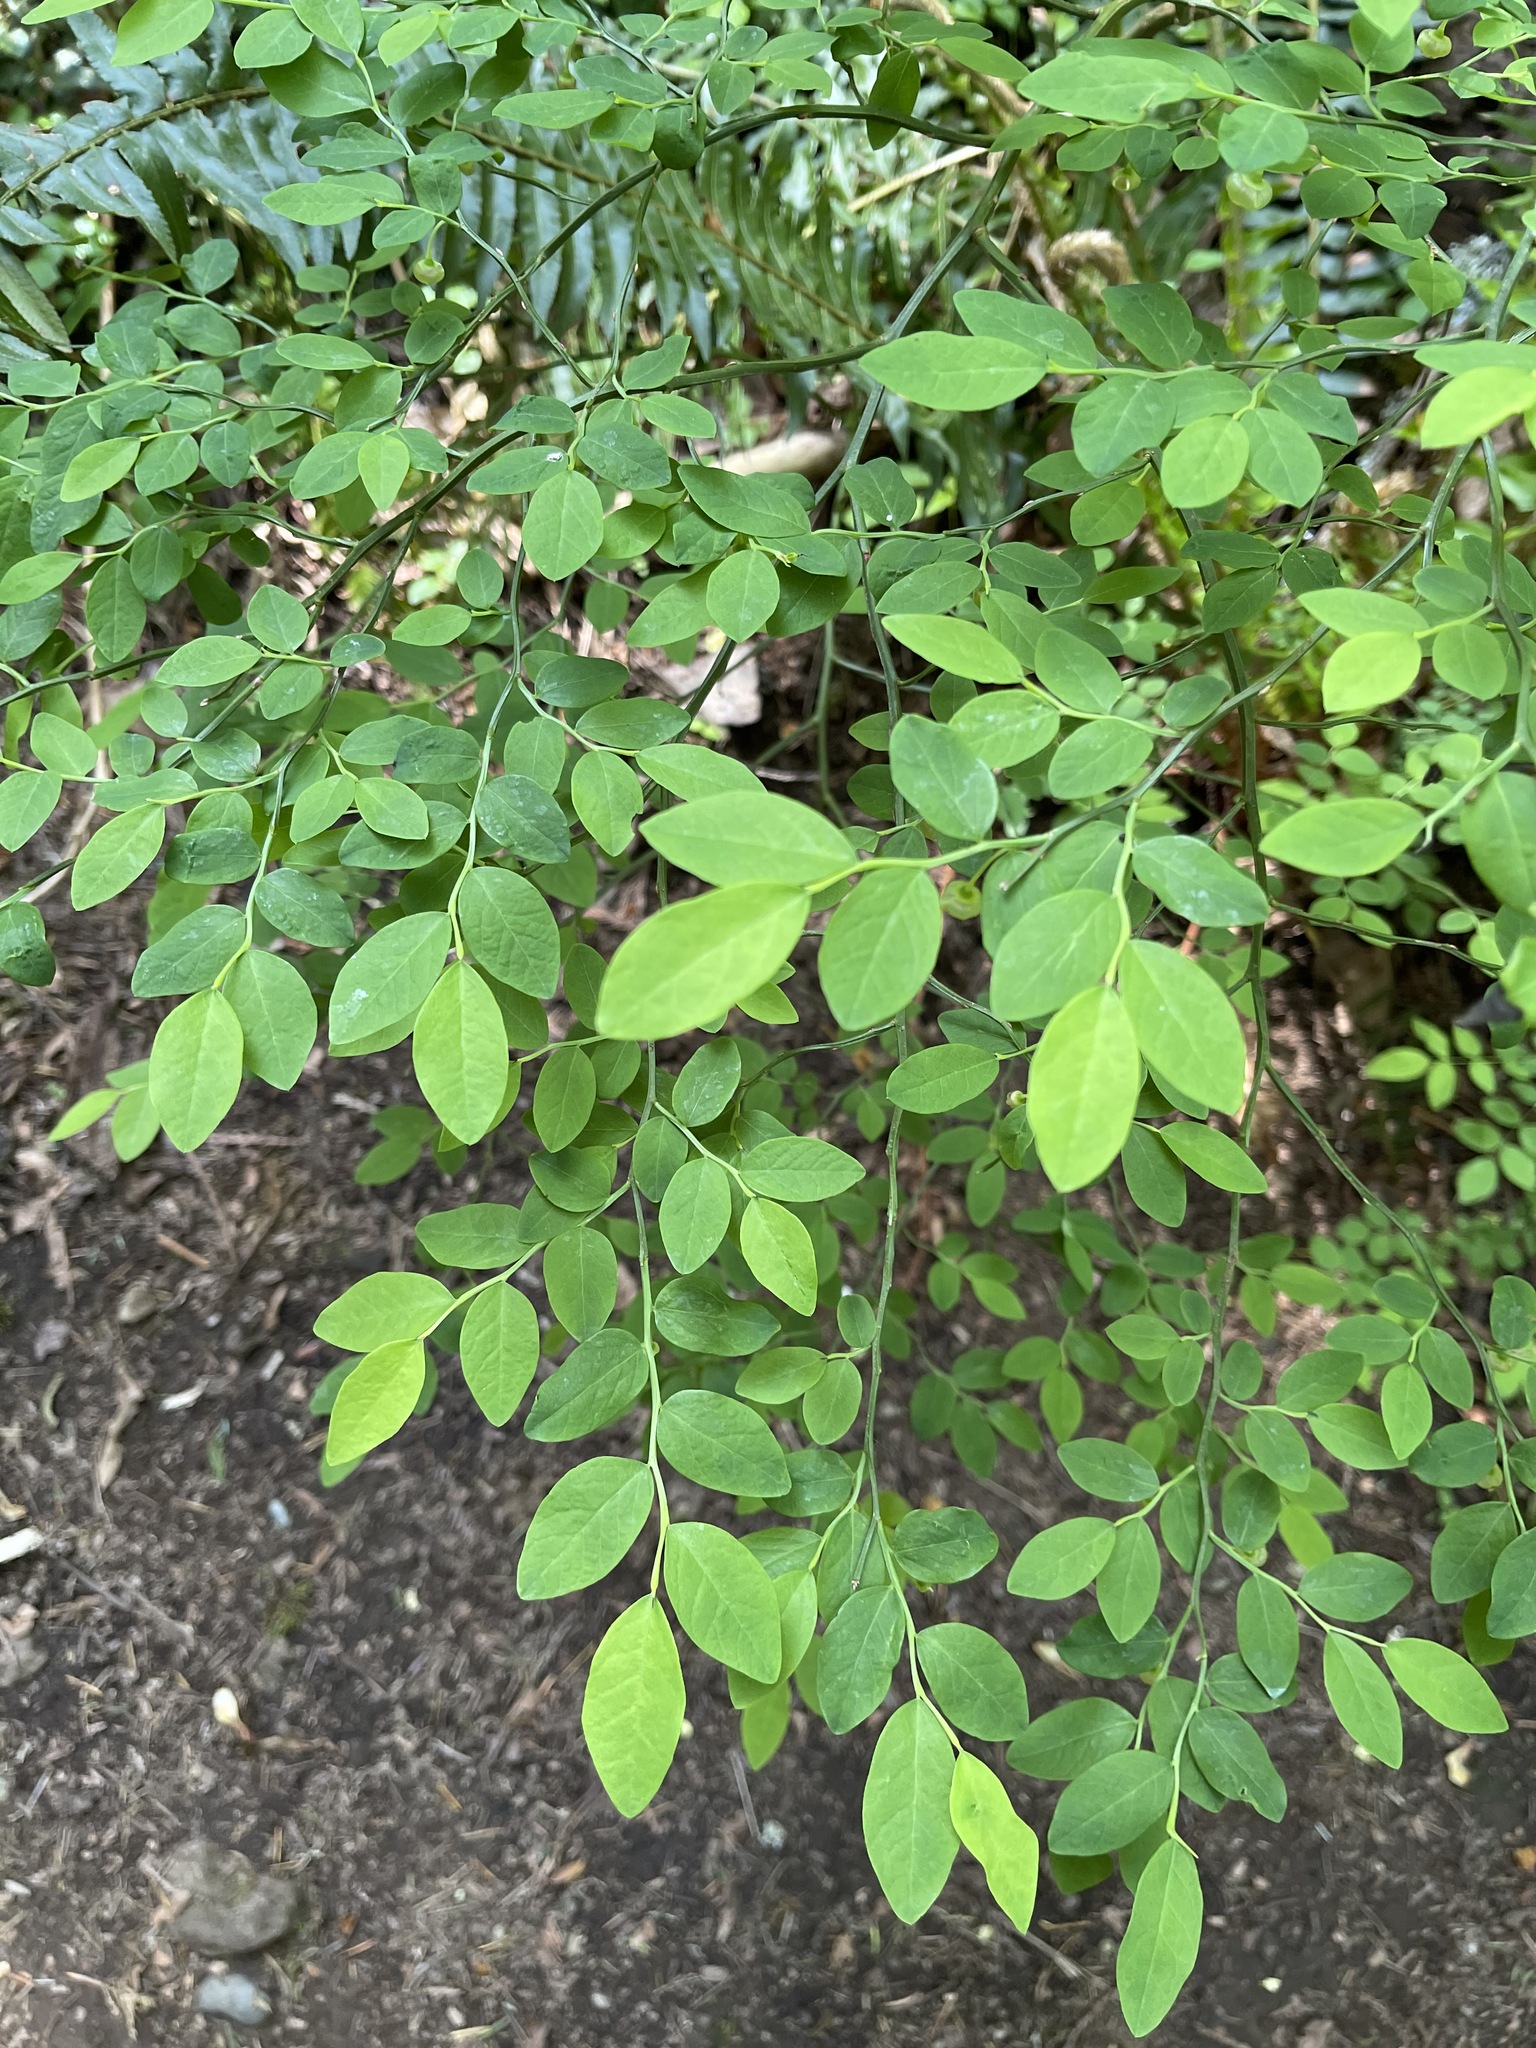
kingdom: Plantae
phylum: Tracheophyta
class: Magnoliopsida
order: Ericales
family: Ericaceae
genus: Vaccinium
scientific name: Vaccinium parvifolium
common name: Red-huckleberry
